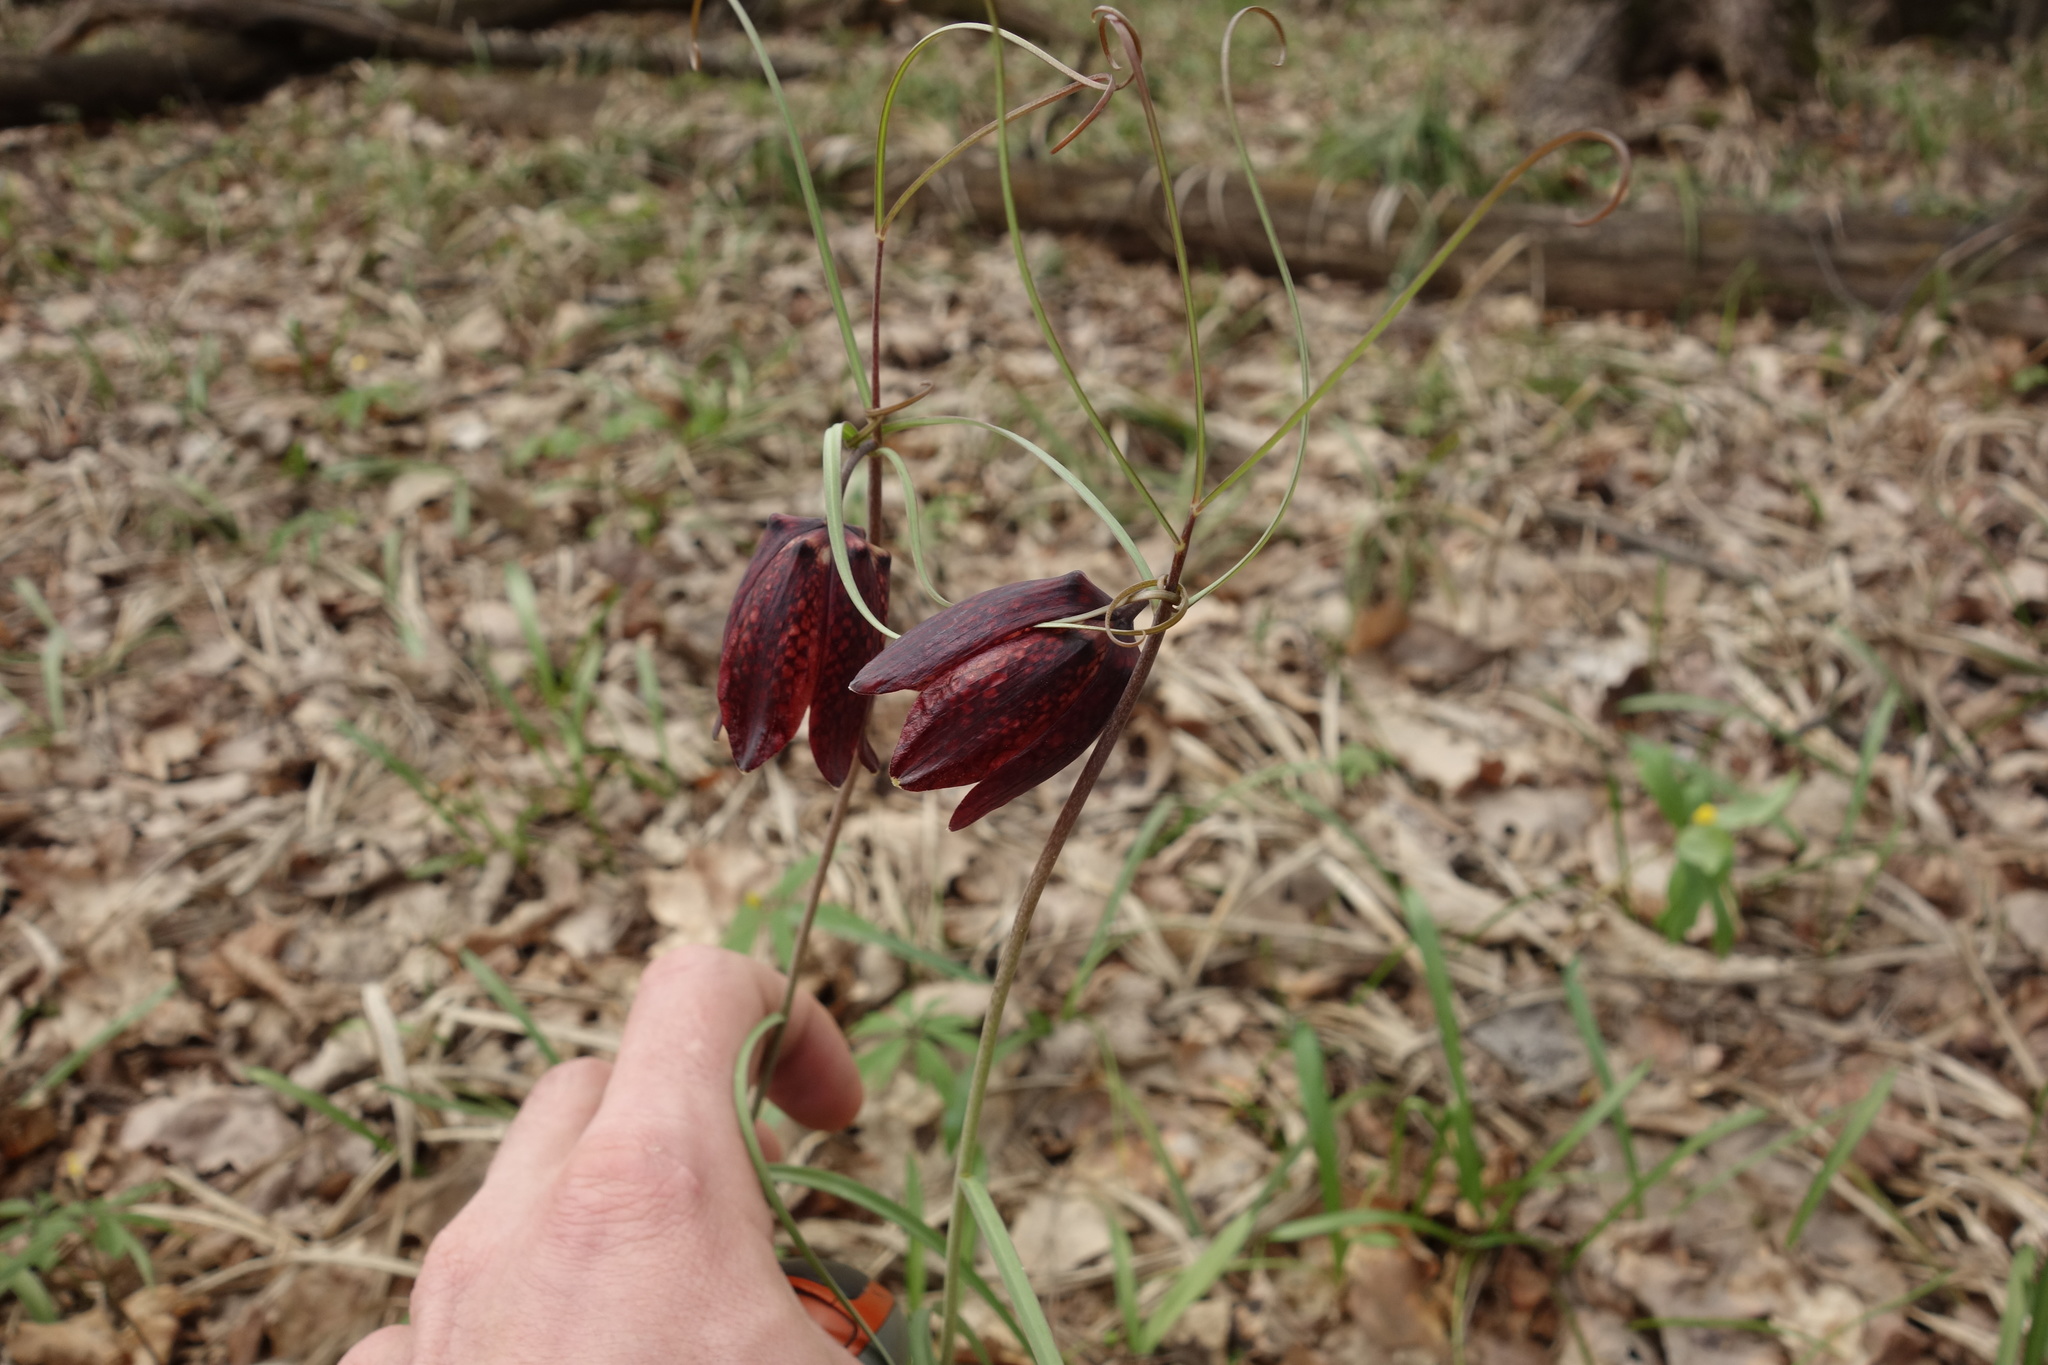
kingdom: Plantae
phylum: Tracheophyta
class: Liliopsida
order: Liliales
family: Liliaceae
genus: Fritillaria
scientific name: Fritillaria ruthenica
